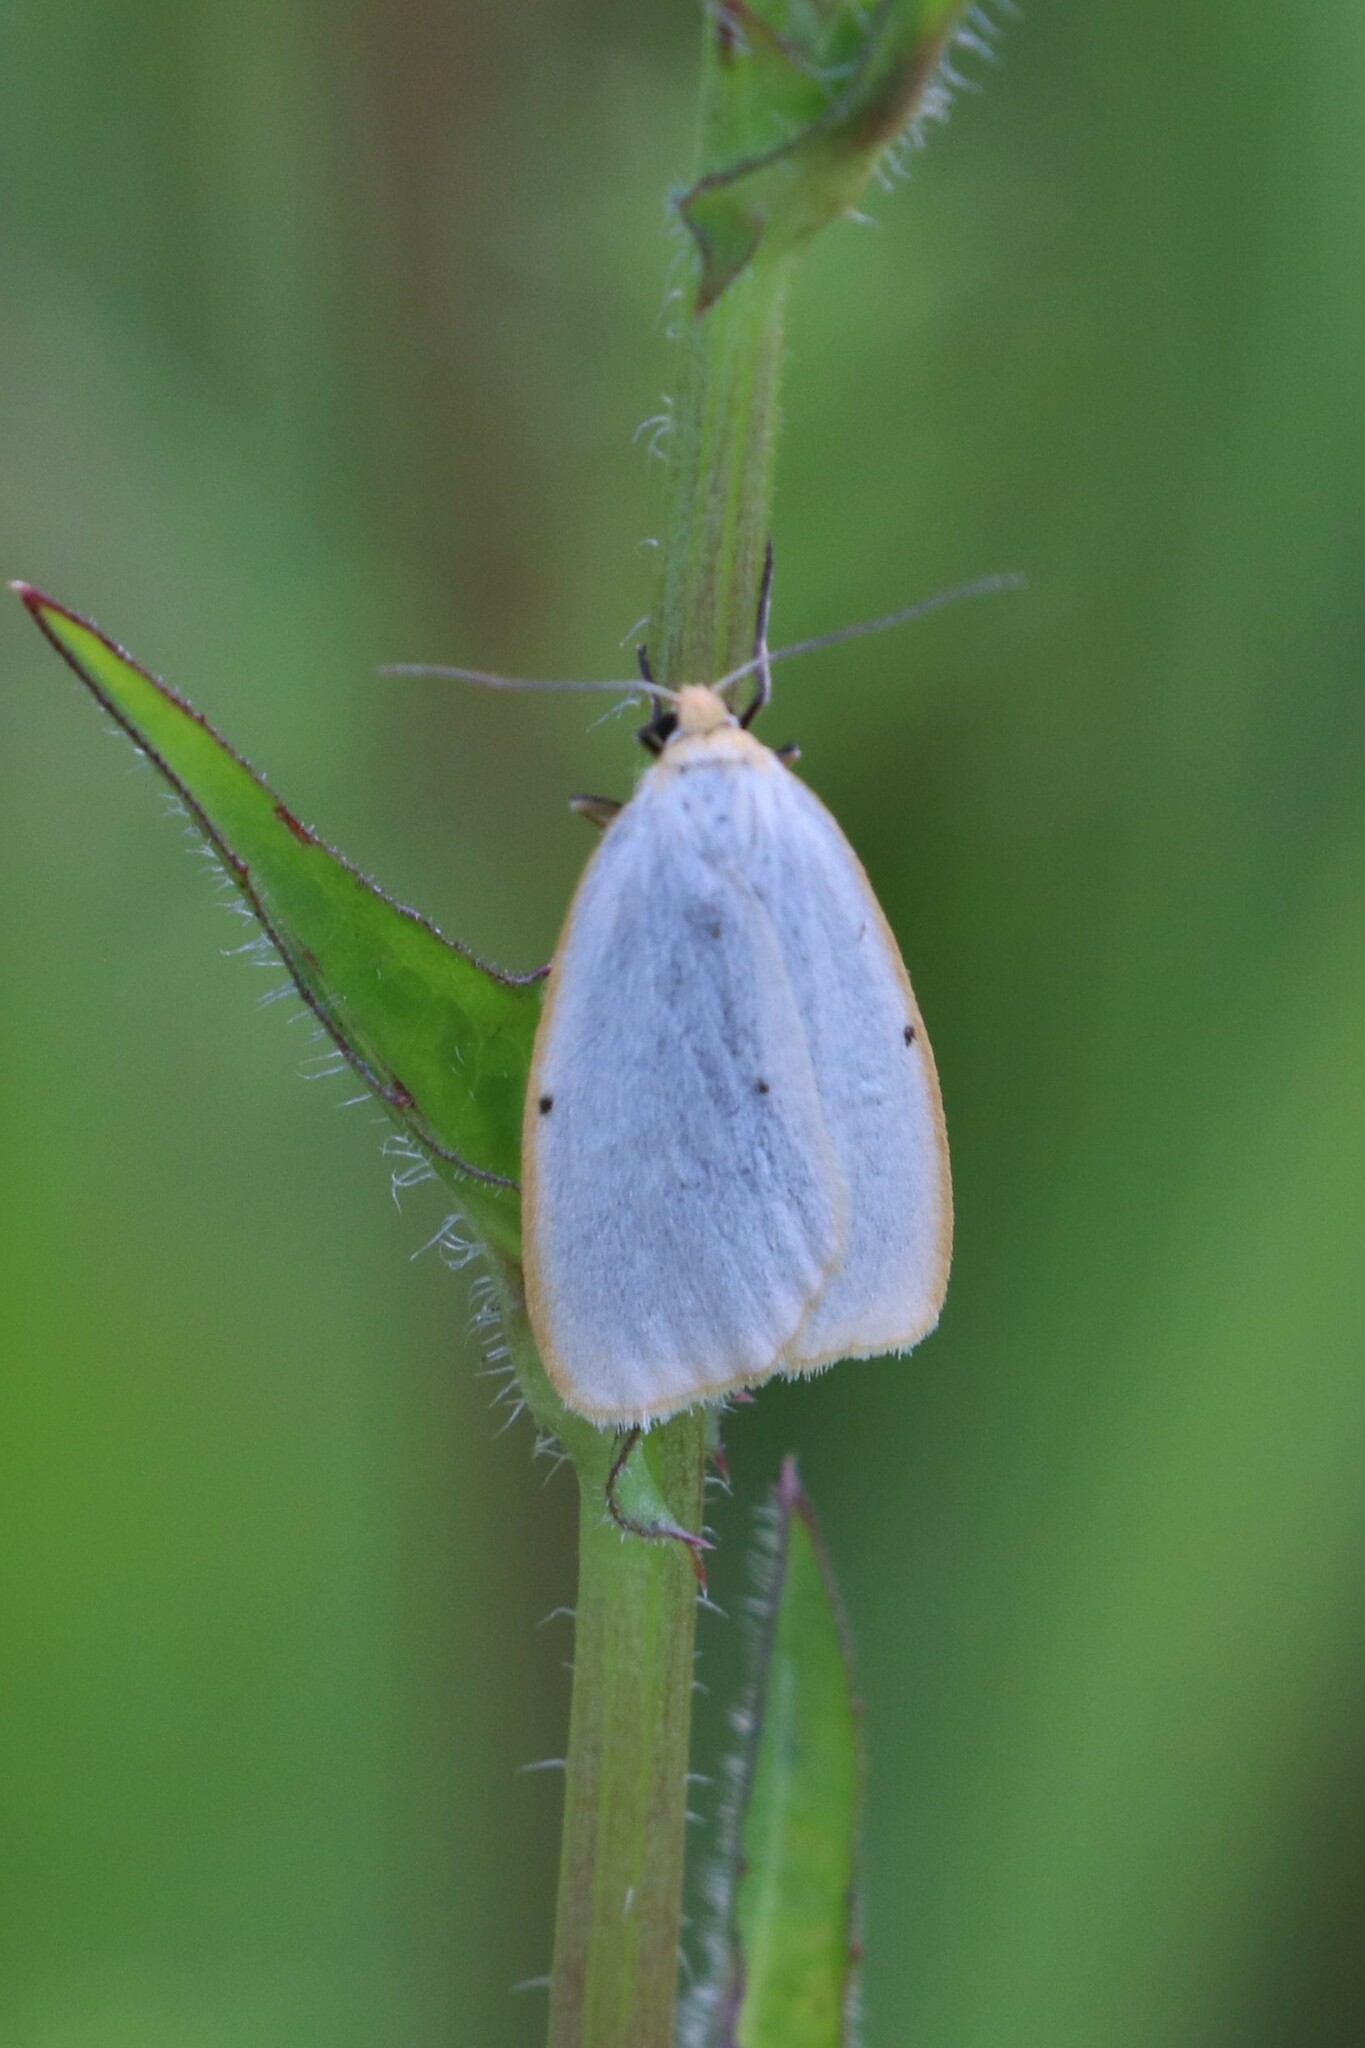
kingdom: Animalia
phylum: Arthropoda
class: Insecta
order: Lepidoptera
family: Erebidae
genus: Cybosia
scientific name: Cybosia mesomella
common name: Four-dotted footman
